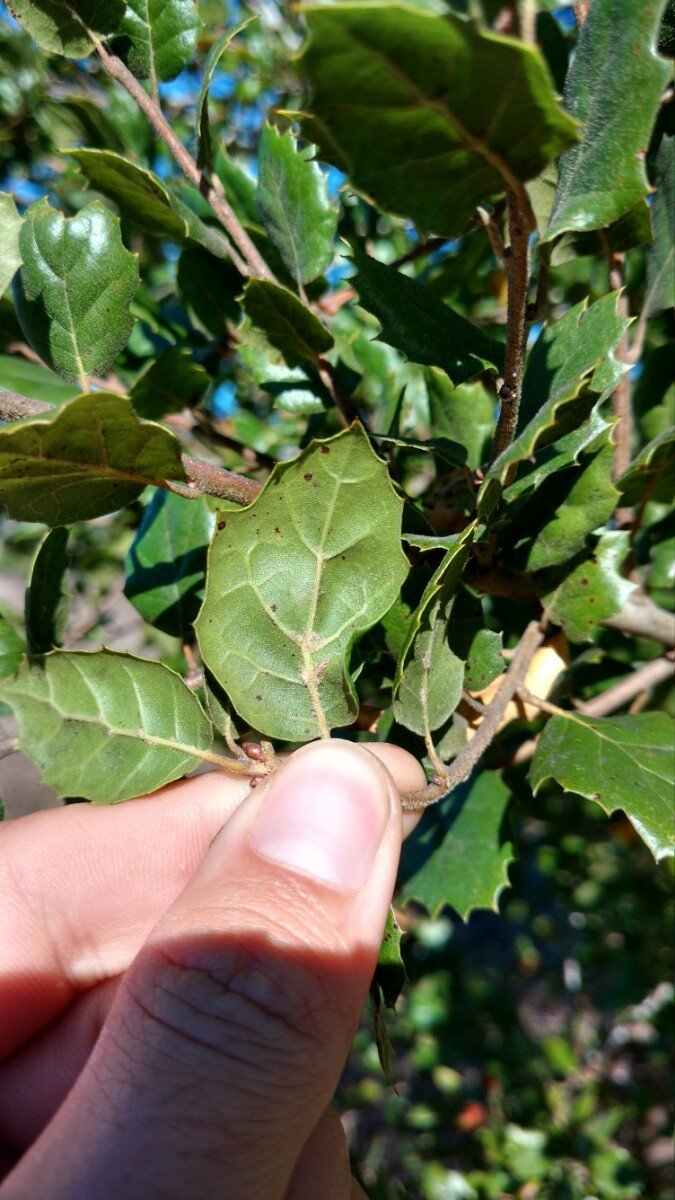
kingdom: Plantae
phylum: Tracheophyta
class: Magnoliopsida
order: Fagales
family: Fagaceae
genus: Quercus
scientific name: Quercus agrifolia
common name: California live oak
